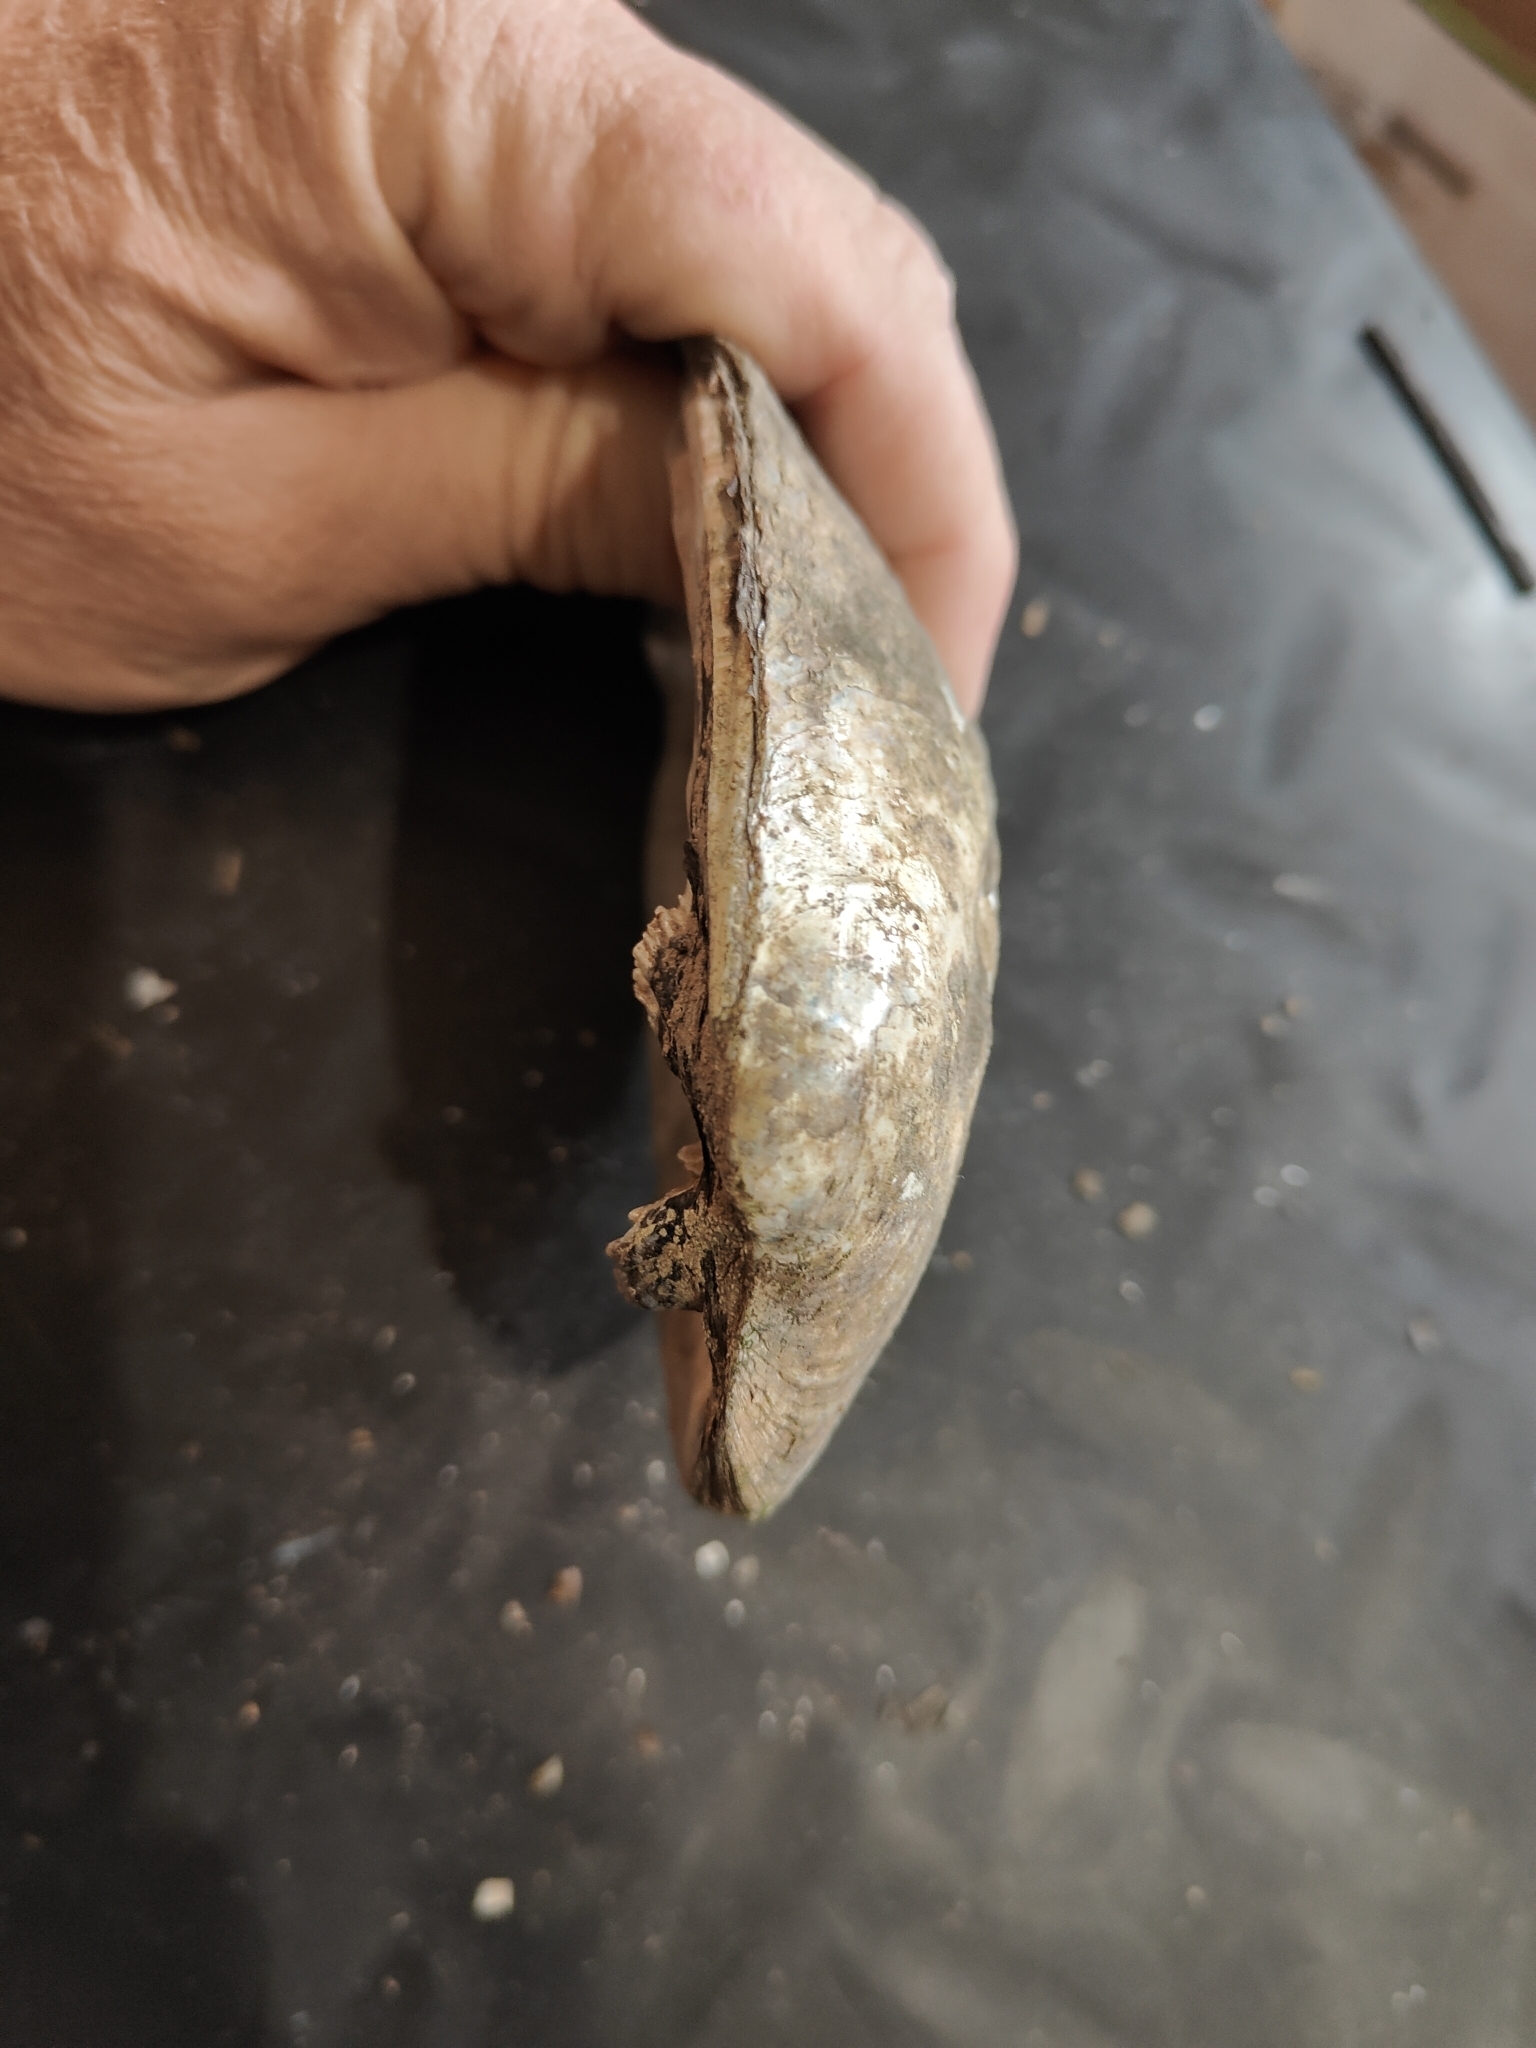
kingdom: Animalia
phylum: Mollusca
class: Bivalvia
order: Unionida
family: Unionidae
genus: Amblema
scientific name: Amblema plicata
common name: Threeridge
